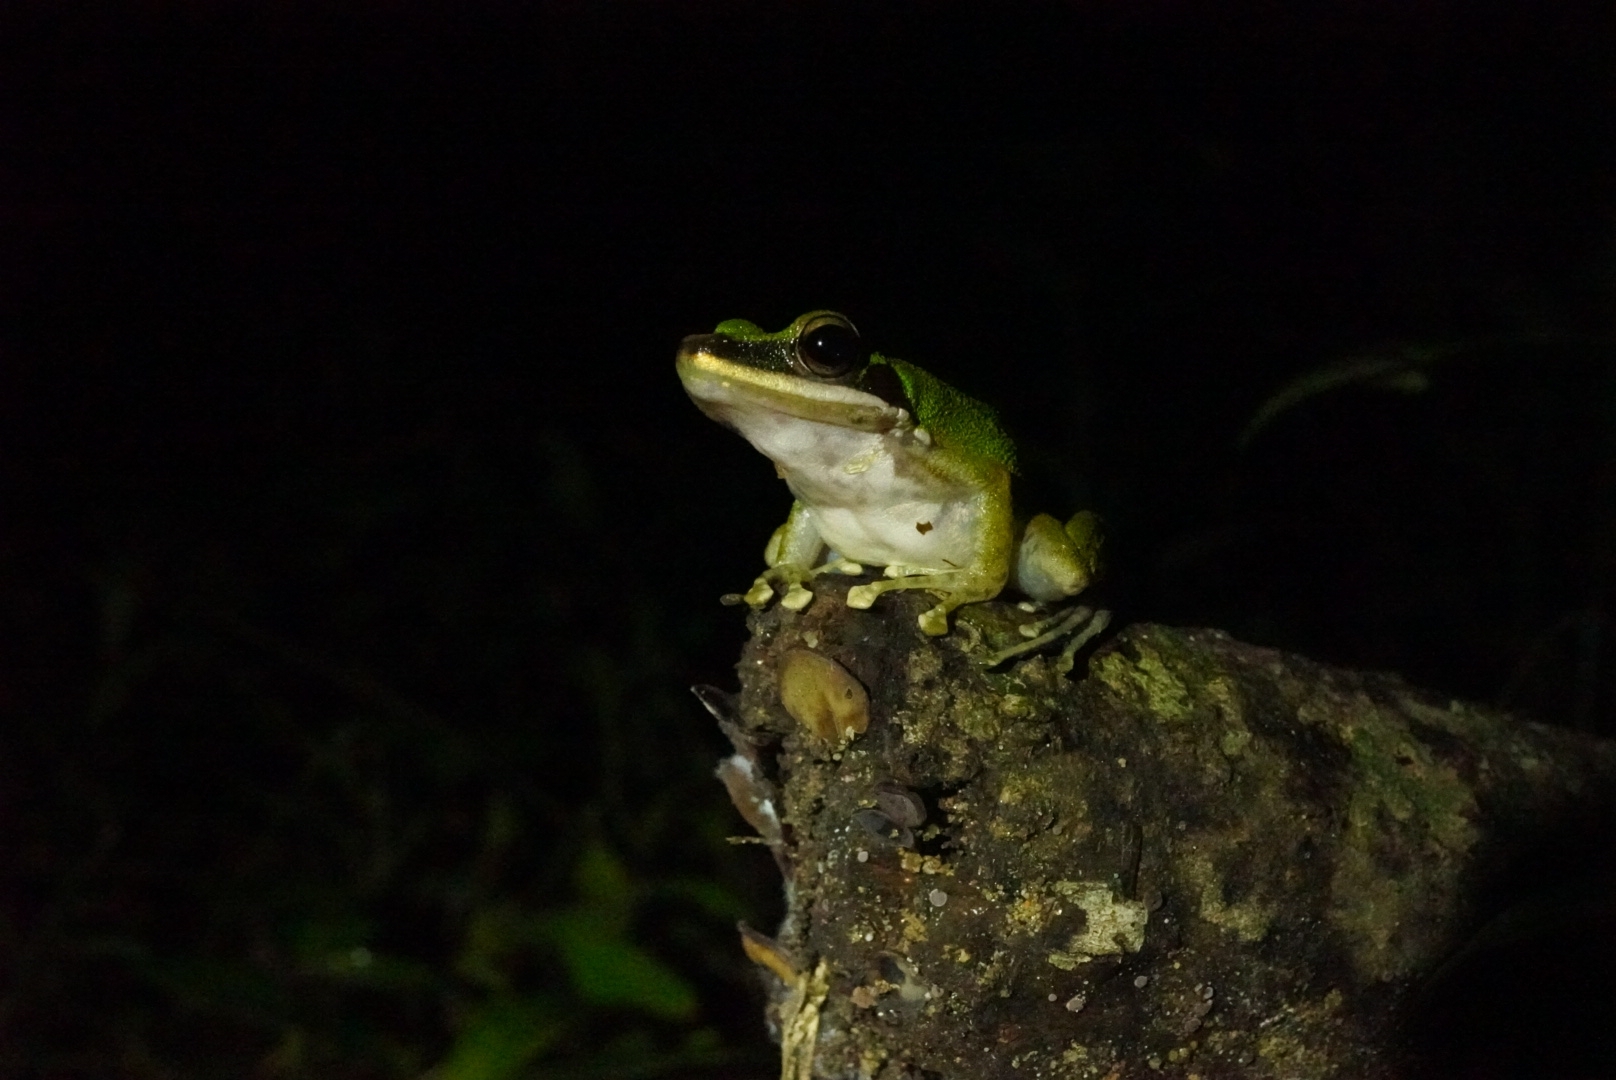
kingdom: Animalia
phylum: Chordata
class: Amphibia
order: Anura
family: Ranidae
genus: Chalcorana
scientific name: Chalcorana eschatia
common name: Tenasserim white-lipped frog
